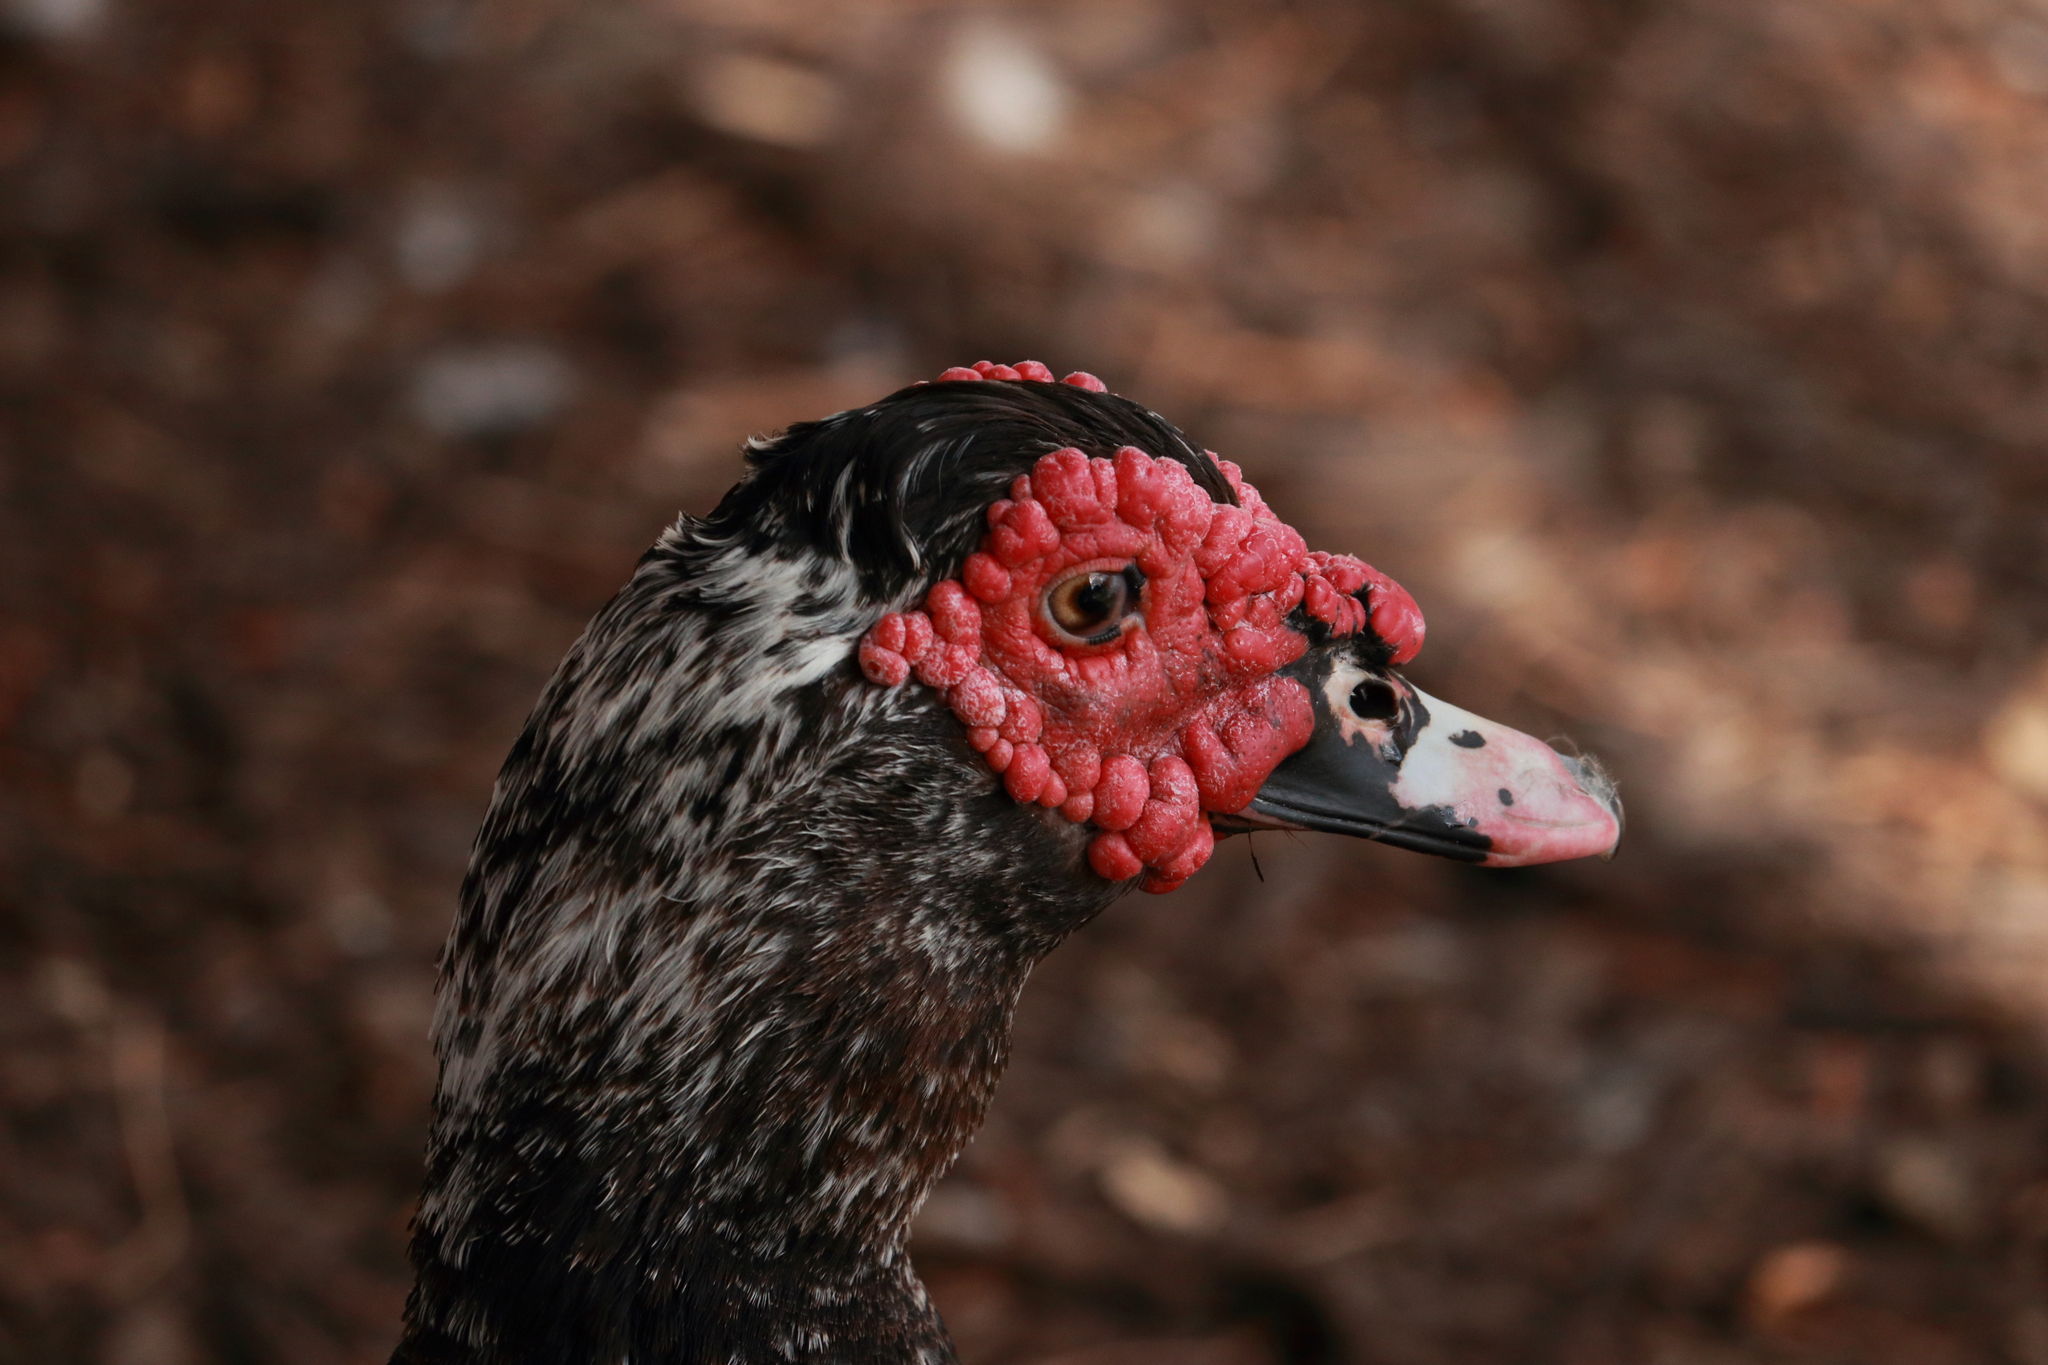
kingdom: Animalia
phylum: Chordata
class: Aves
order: Anseriformes
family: Anatidae
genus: Cairina
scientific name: Cairina moschata
